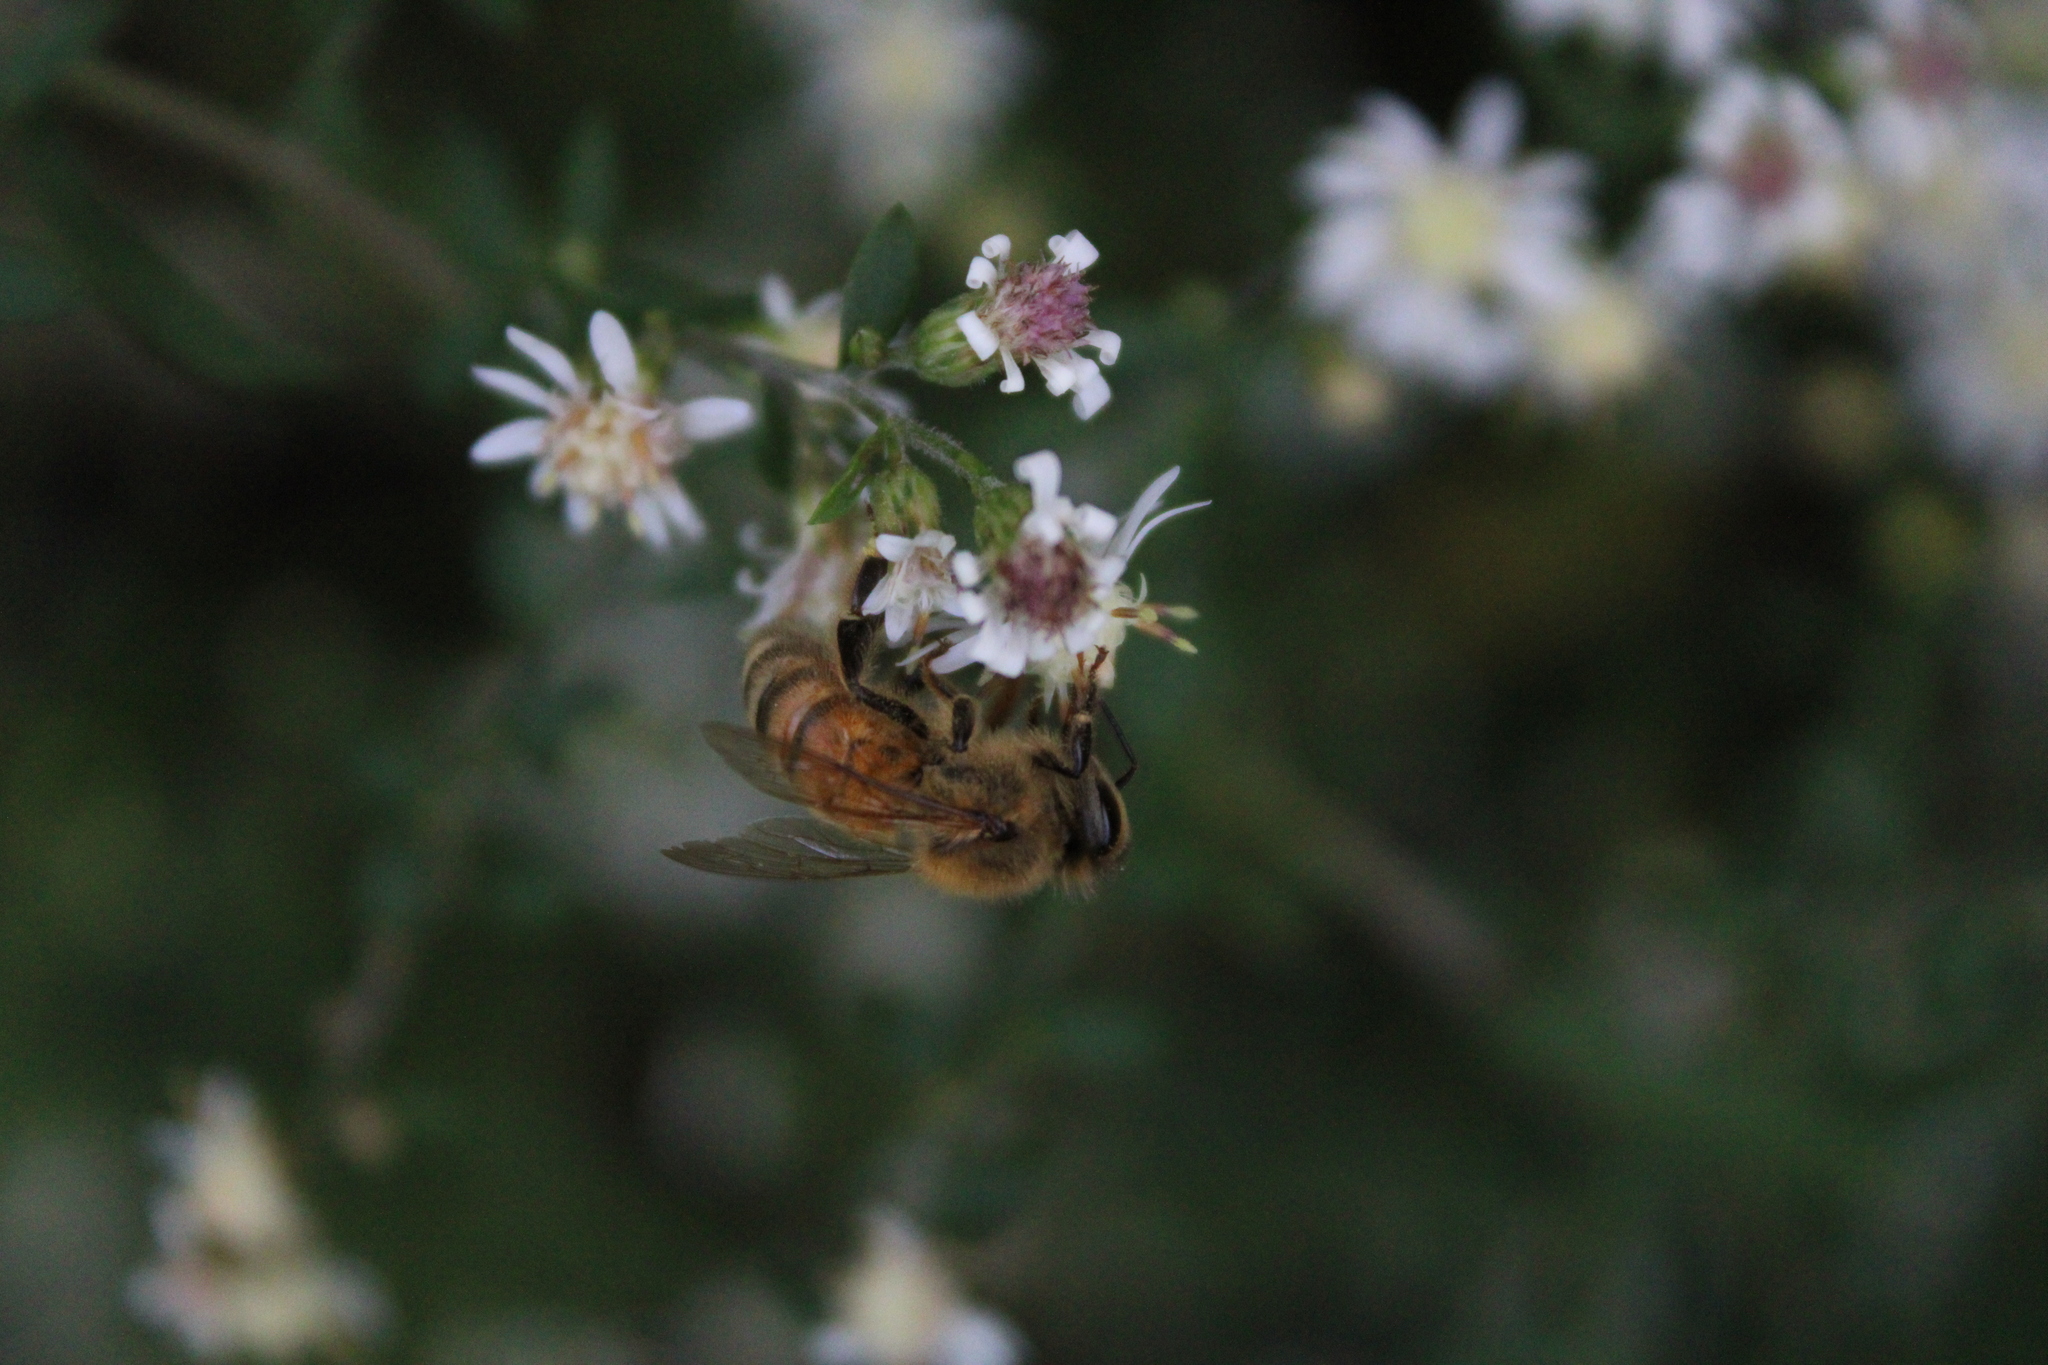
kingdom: Animalia
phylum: Arthropoda
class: Insecta
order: Hymenoptera
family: Apidae
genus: Apis
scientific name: Apis mellifera
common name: Honey bee
